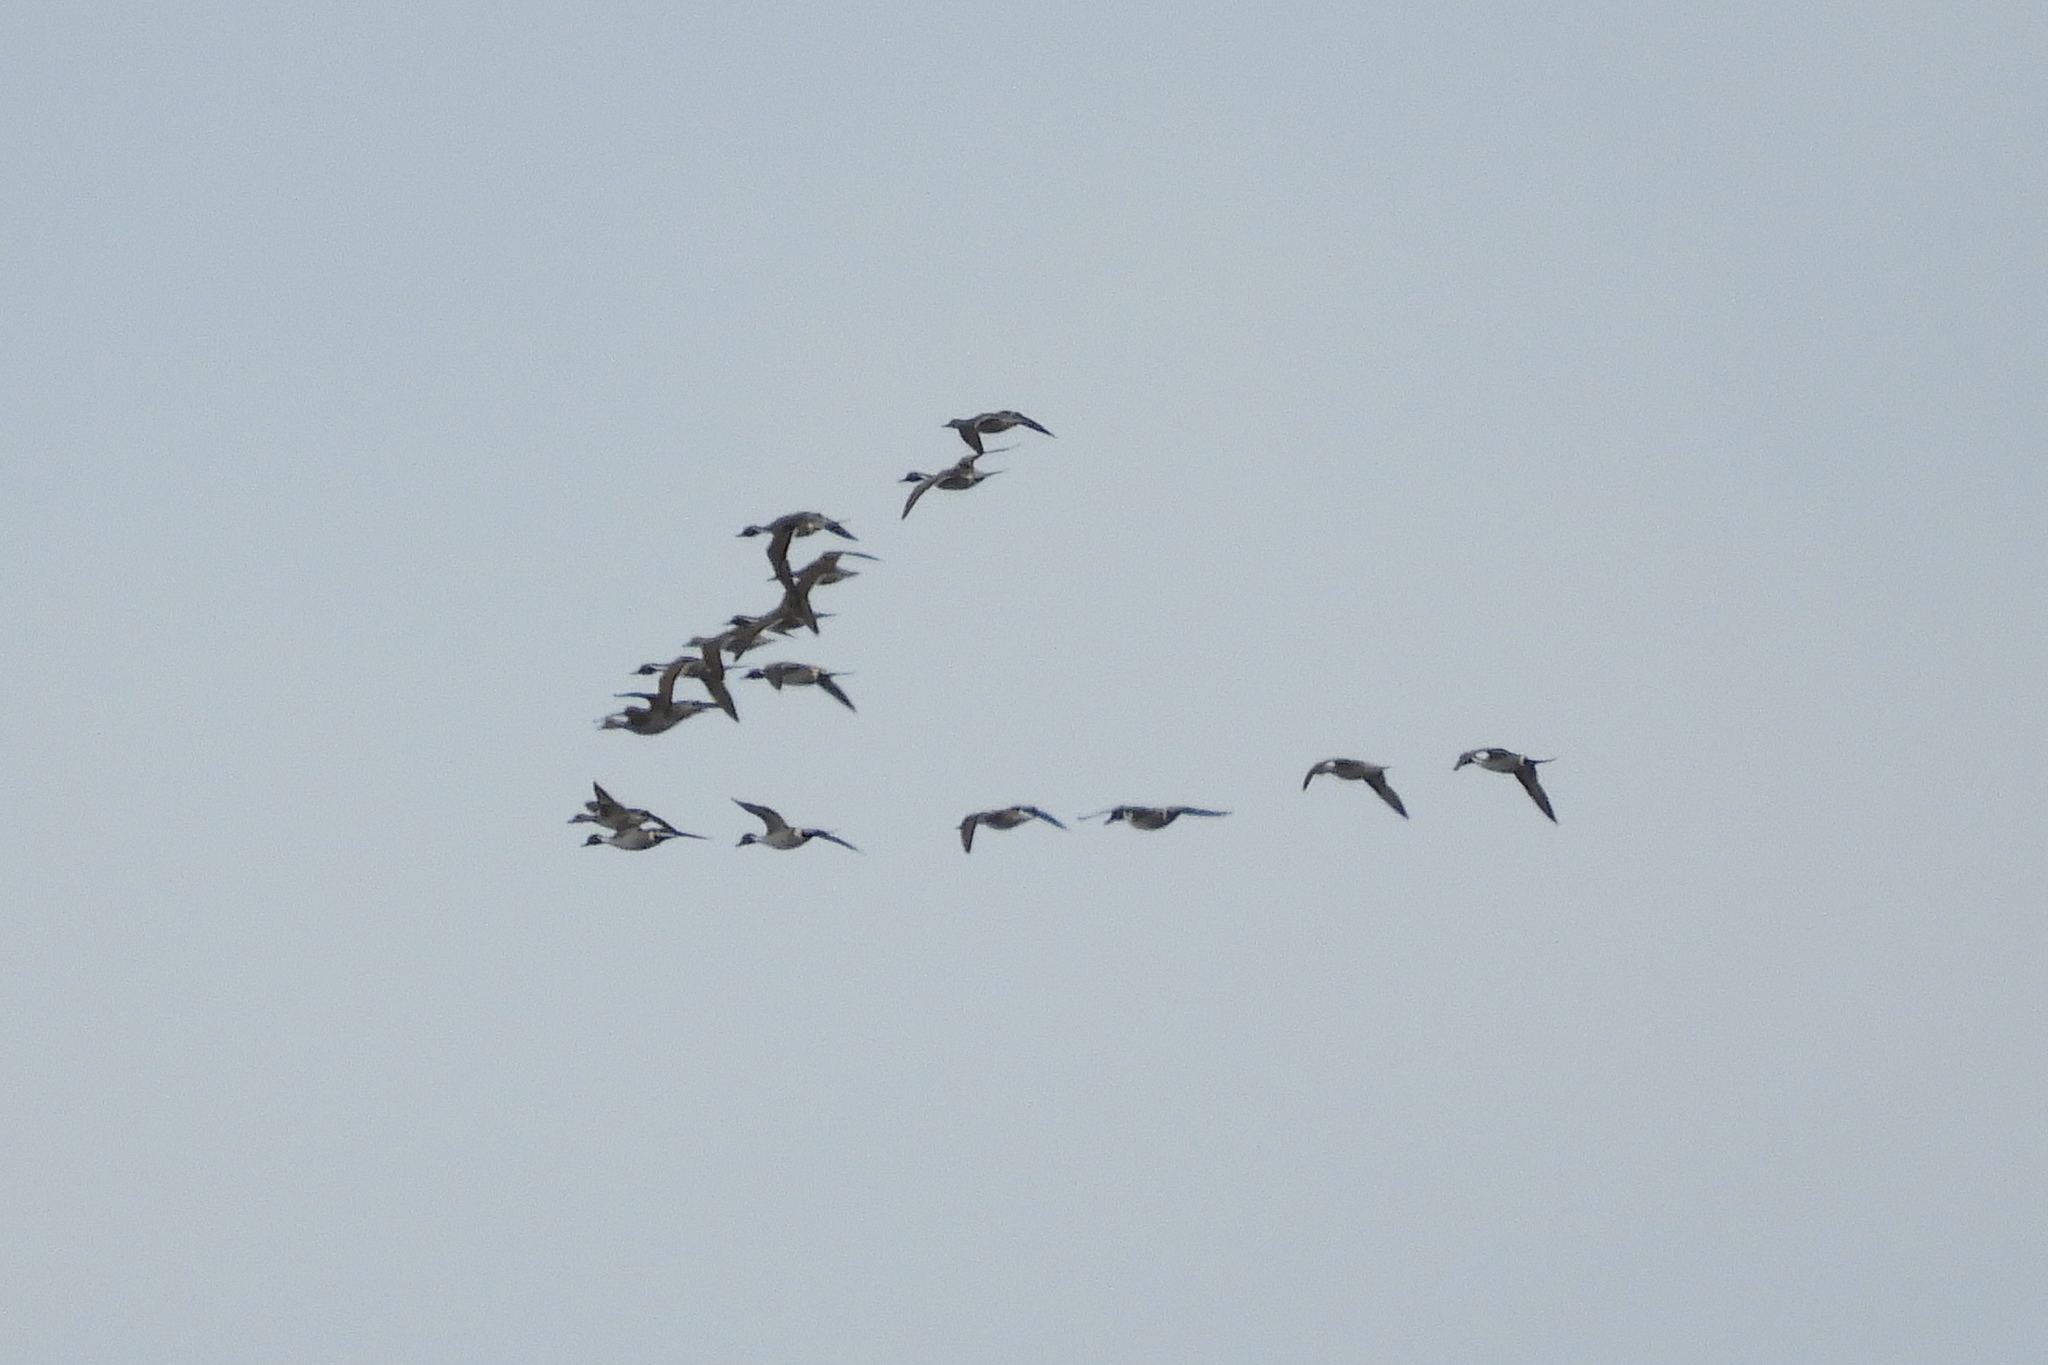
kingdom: Animalia
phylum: Chordata
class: Aves
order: Anseriformes
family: Anatidae
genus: Anas
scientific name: Anas acuta
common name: Northern pintail
